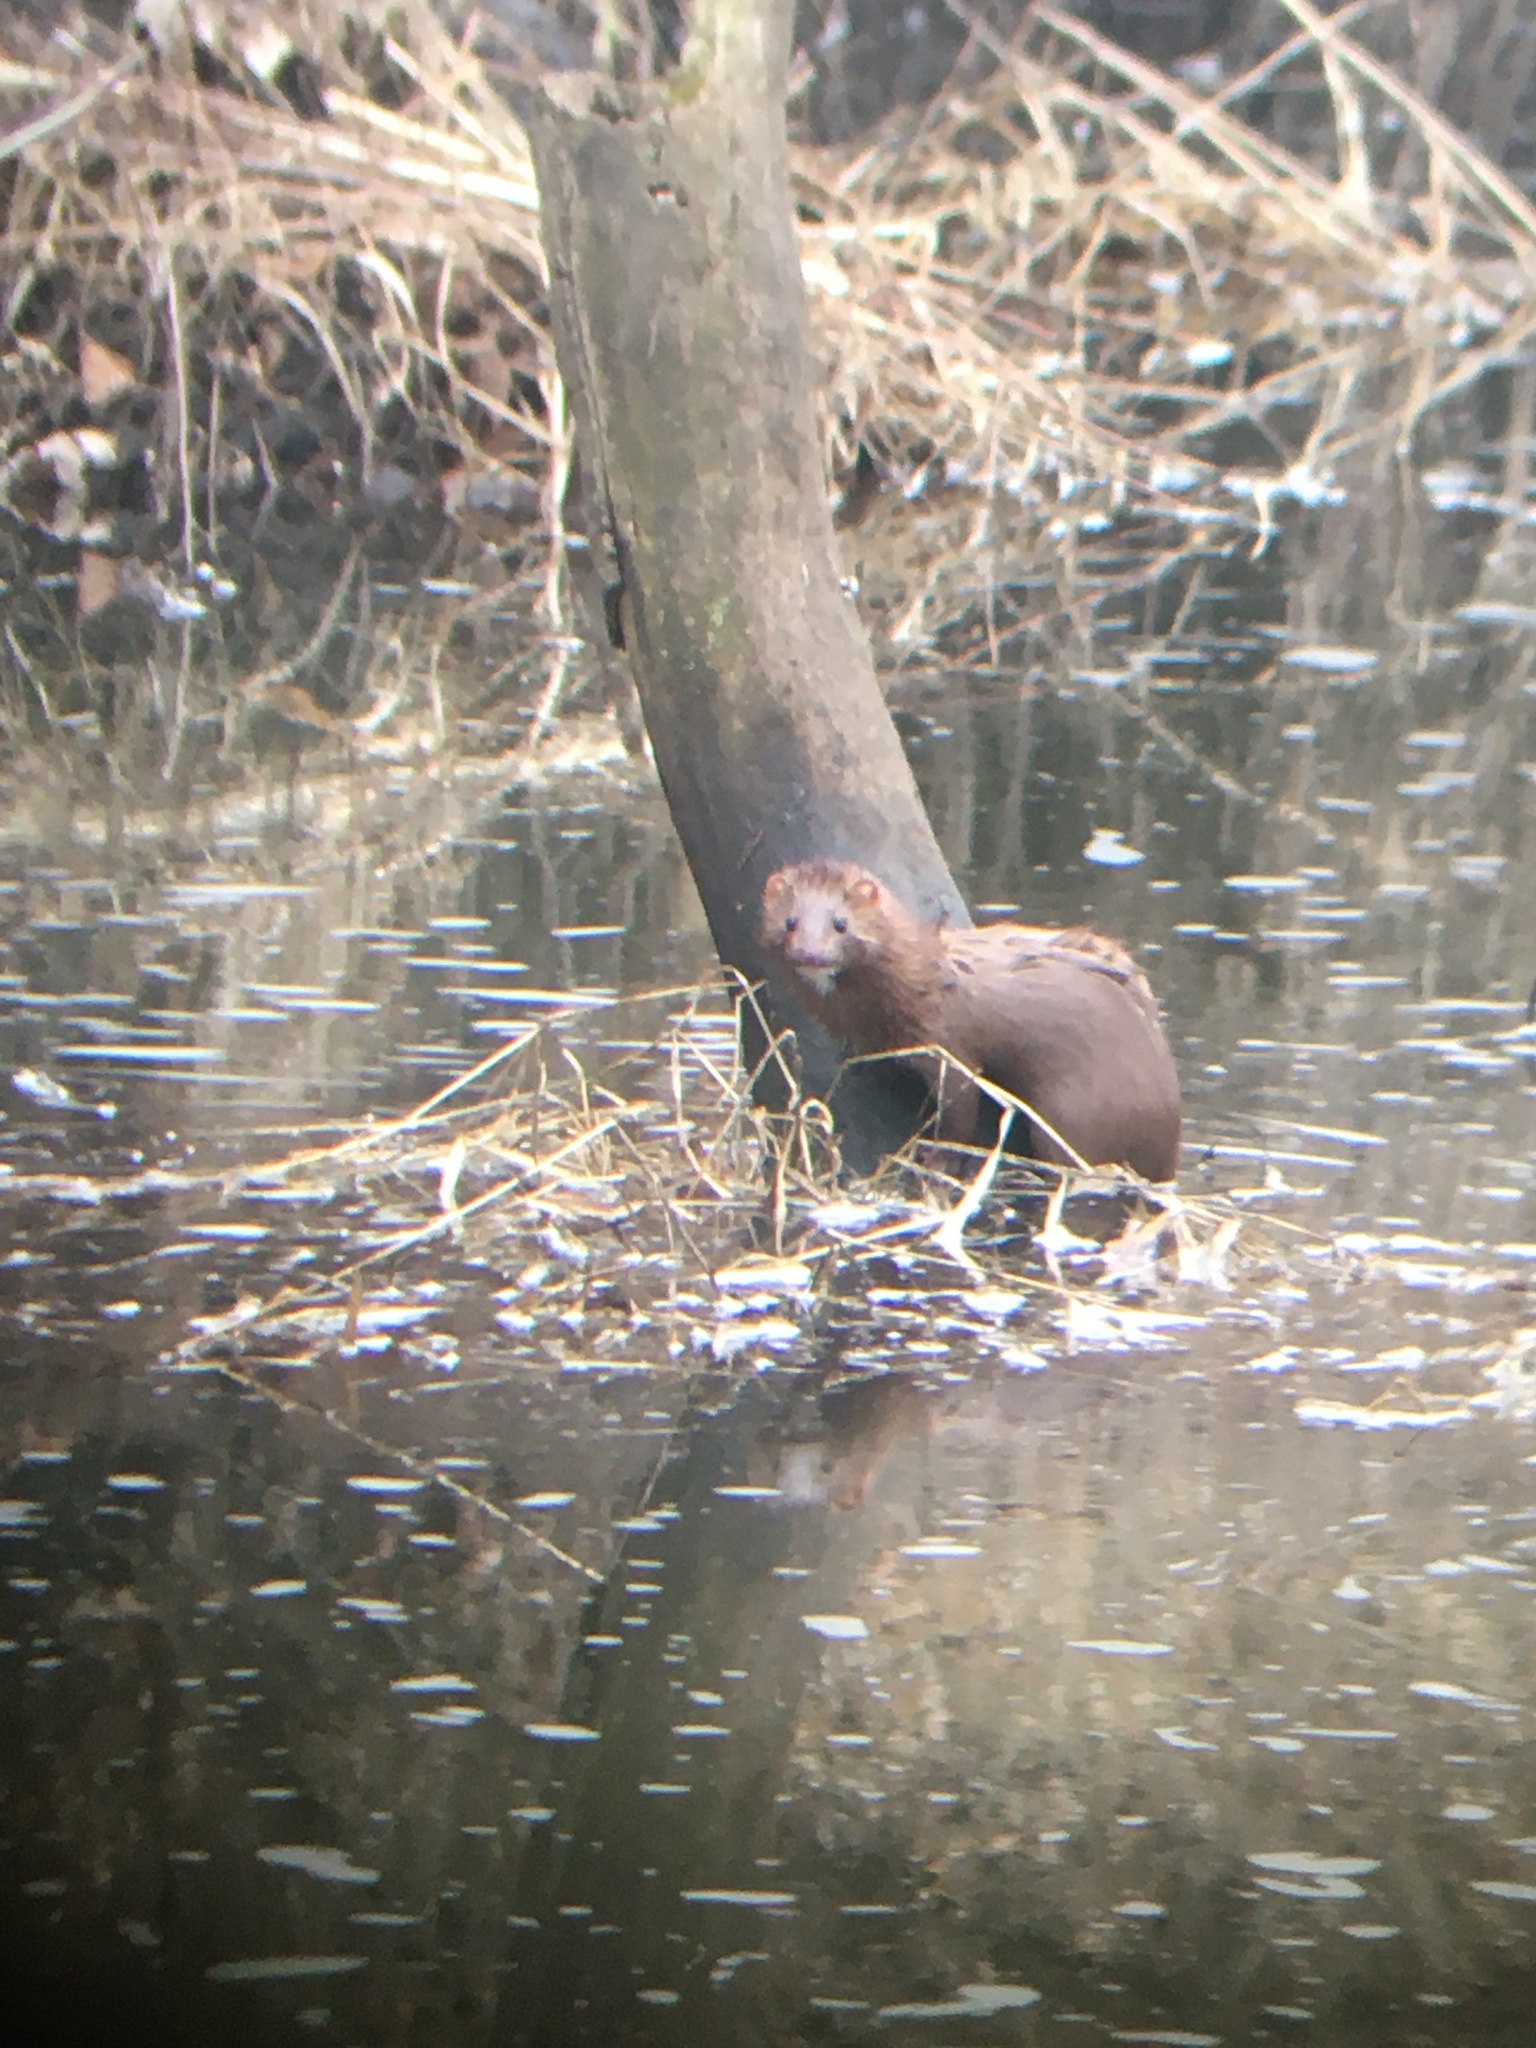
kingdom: Animalia
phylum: Chordata
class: Mammalia
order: Carnivora
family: Mustelidae
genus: Mustela
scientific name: Mustela
